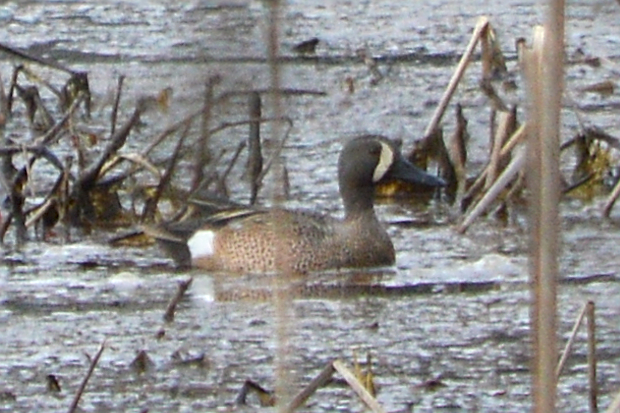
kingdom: Animalia
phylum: Chordata
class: Aves
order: Anseriformes
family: Anatidae
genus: Spatula
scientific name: Spatula discors
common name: Blue-winged teal
